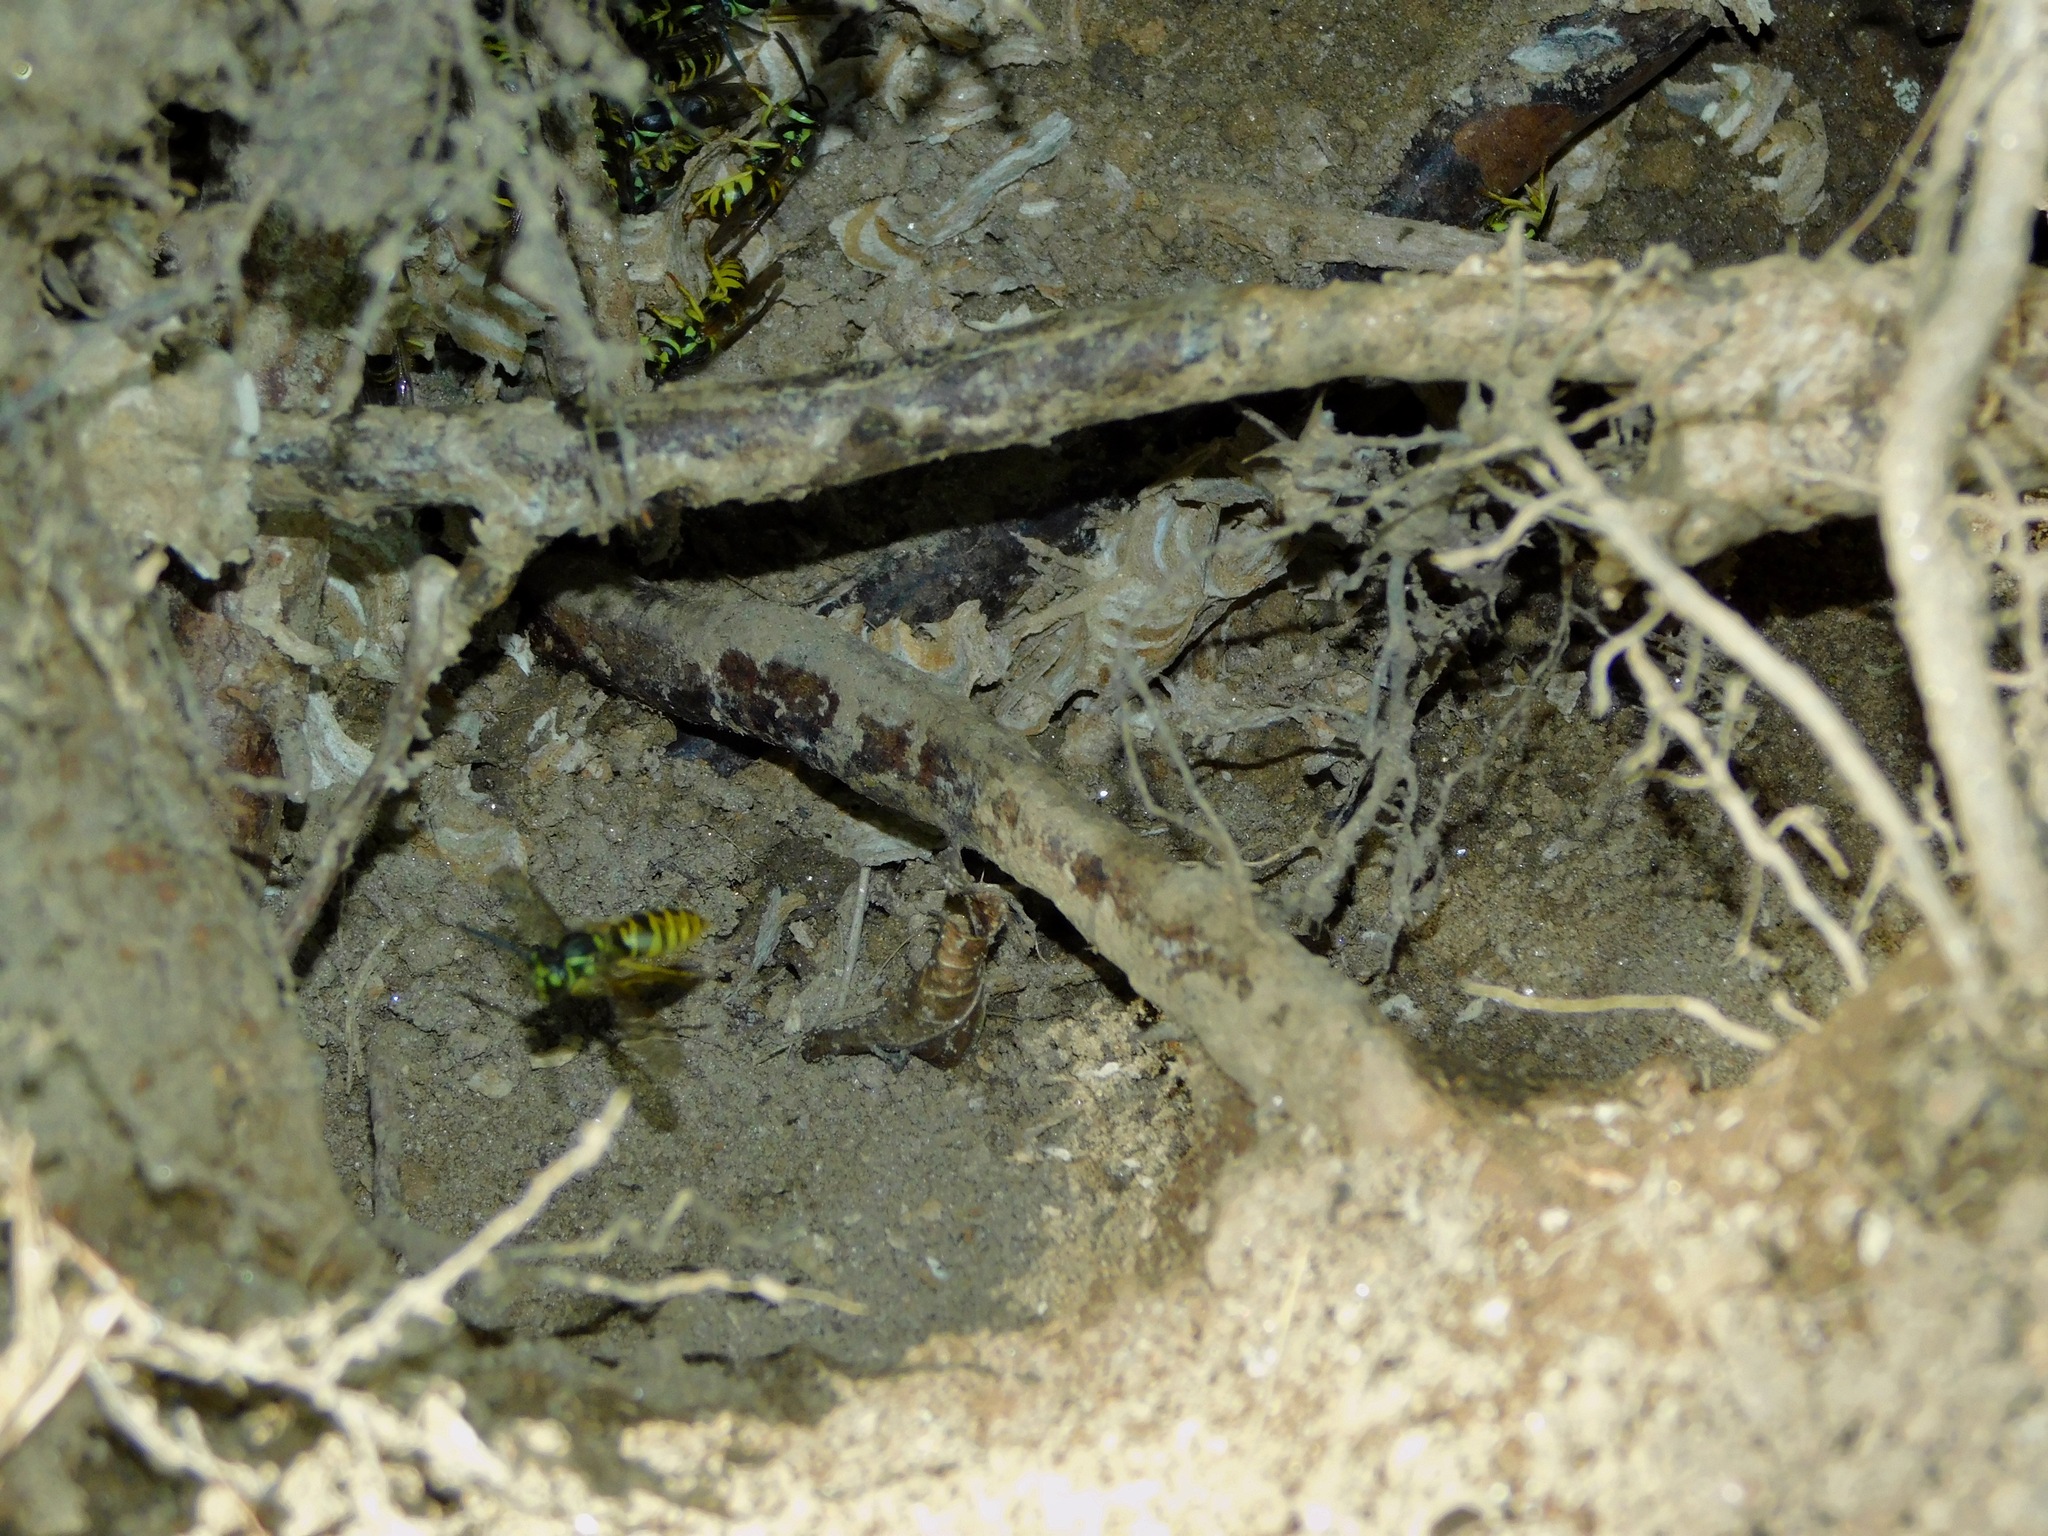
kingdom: Animalia
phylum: Arthropoda
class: Insecta
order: Hymenoptera
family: Vespidae
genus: Vespula
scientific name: Vespula maculifrons
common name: Eastern yellowjacket
